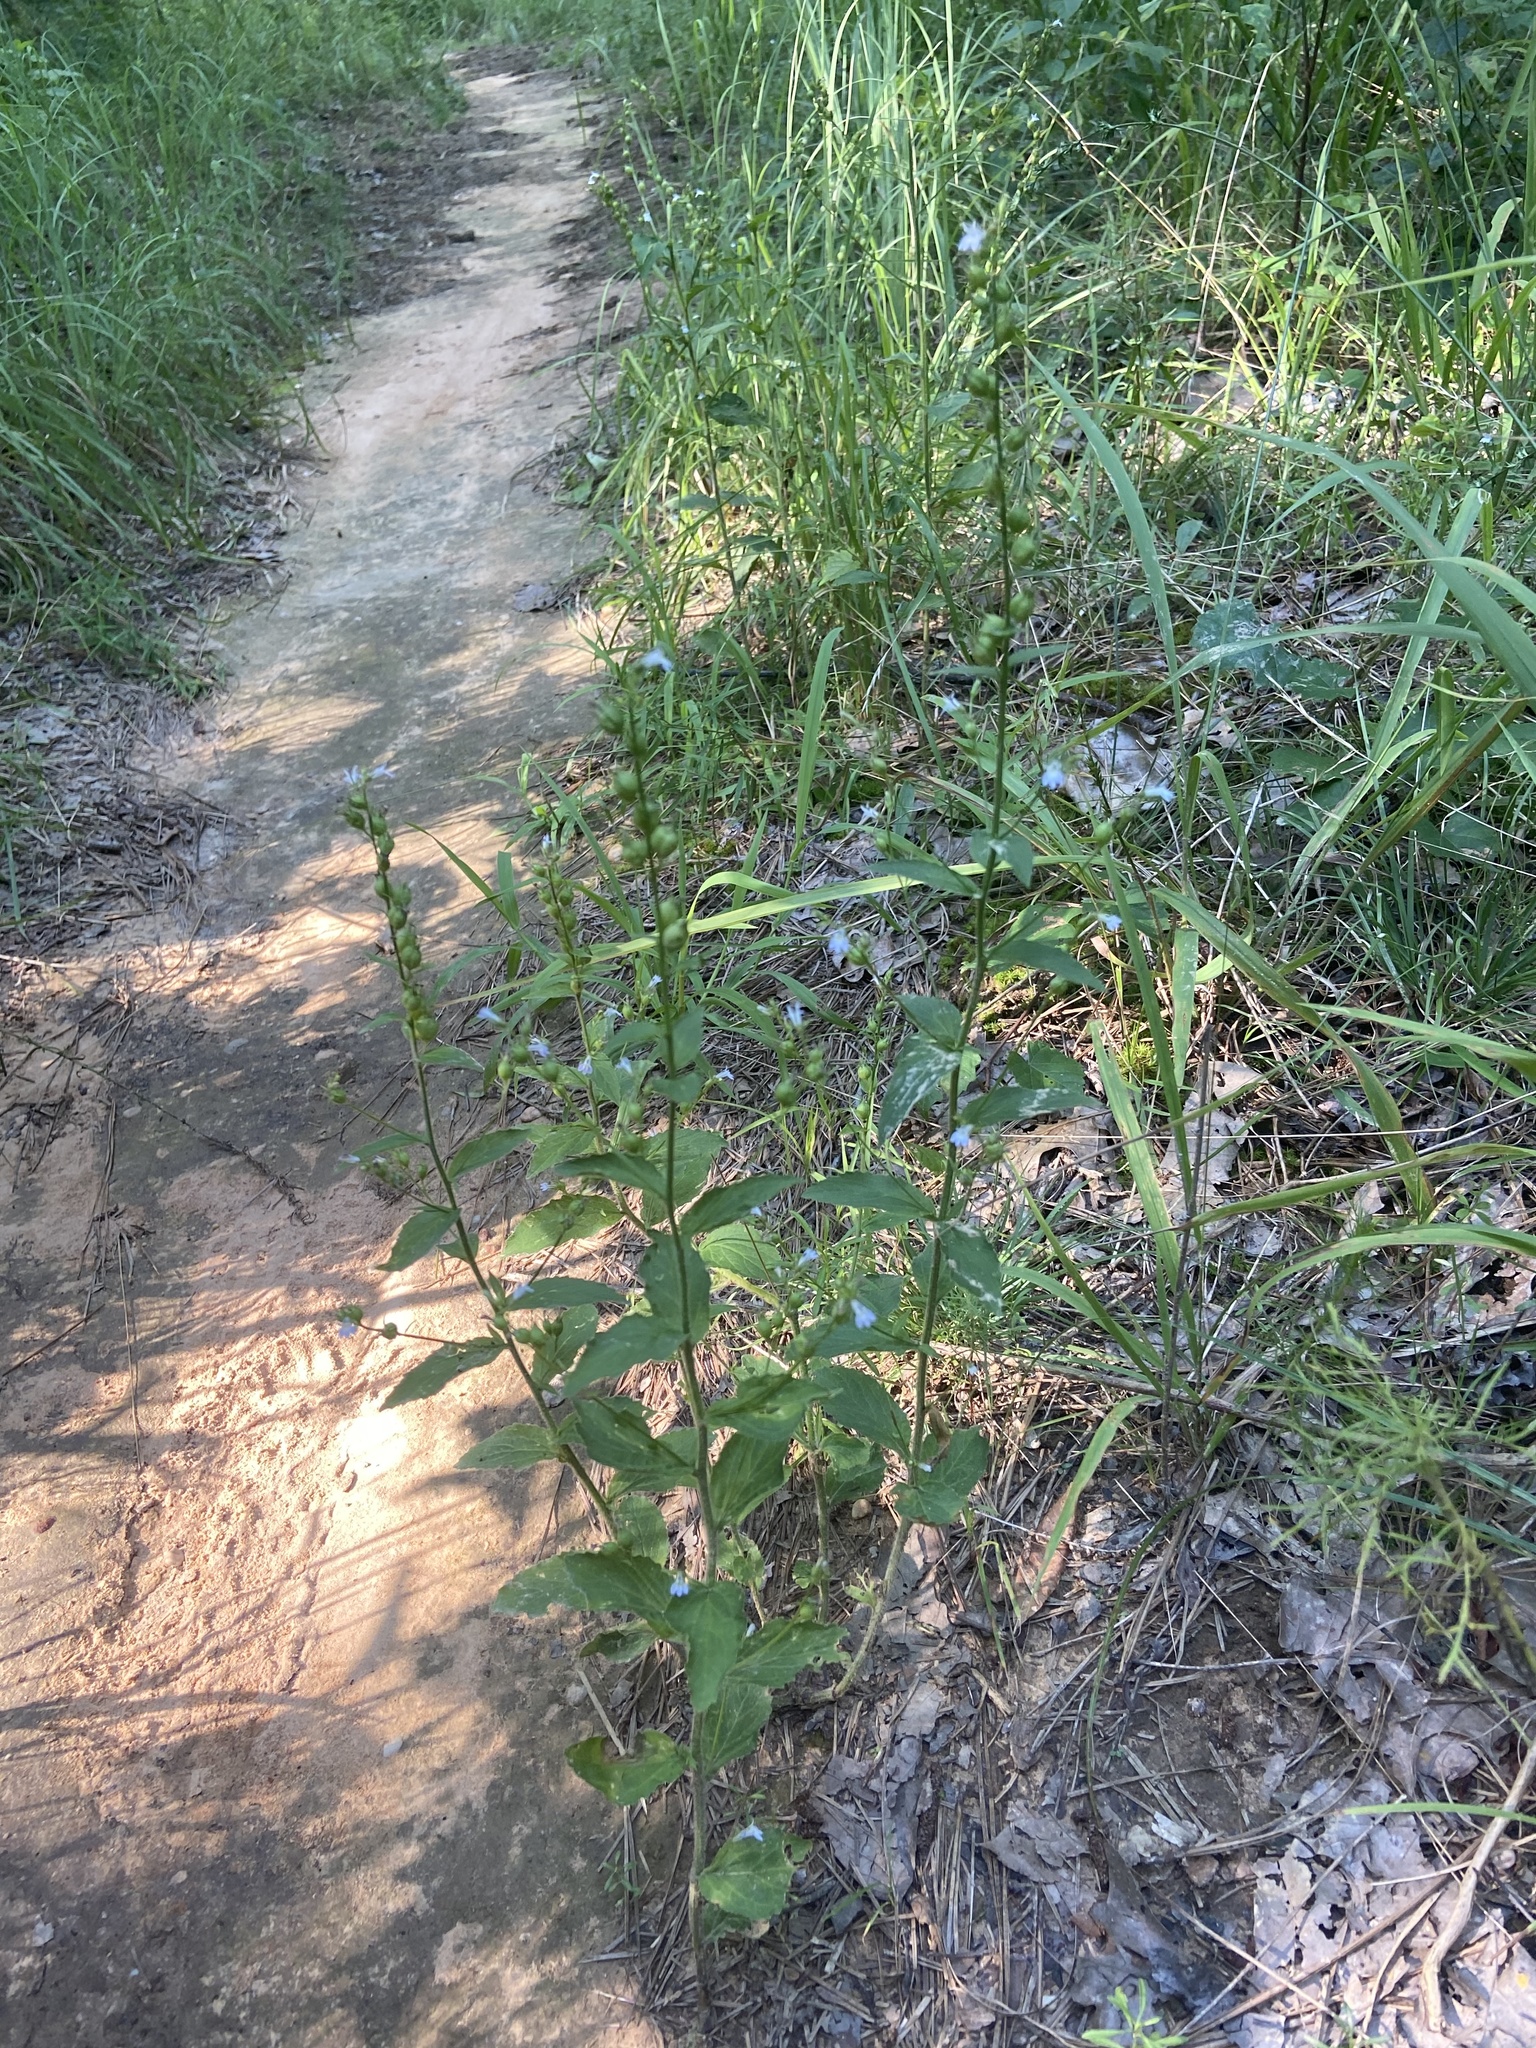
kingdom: Plantae
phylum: Tracheophyta
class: Magnoliopsida
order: Asterales
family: Campanulaceae
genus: Lobelia
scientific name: Lobelia inflata
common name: Indian tobacco
